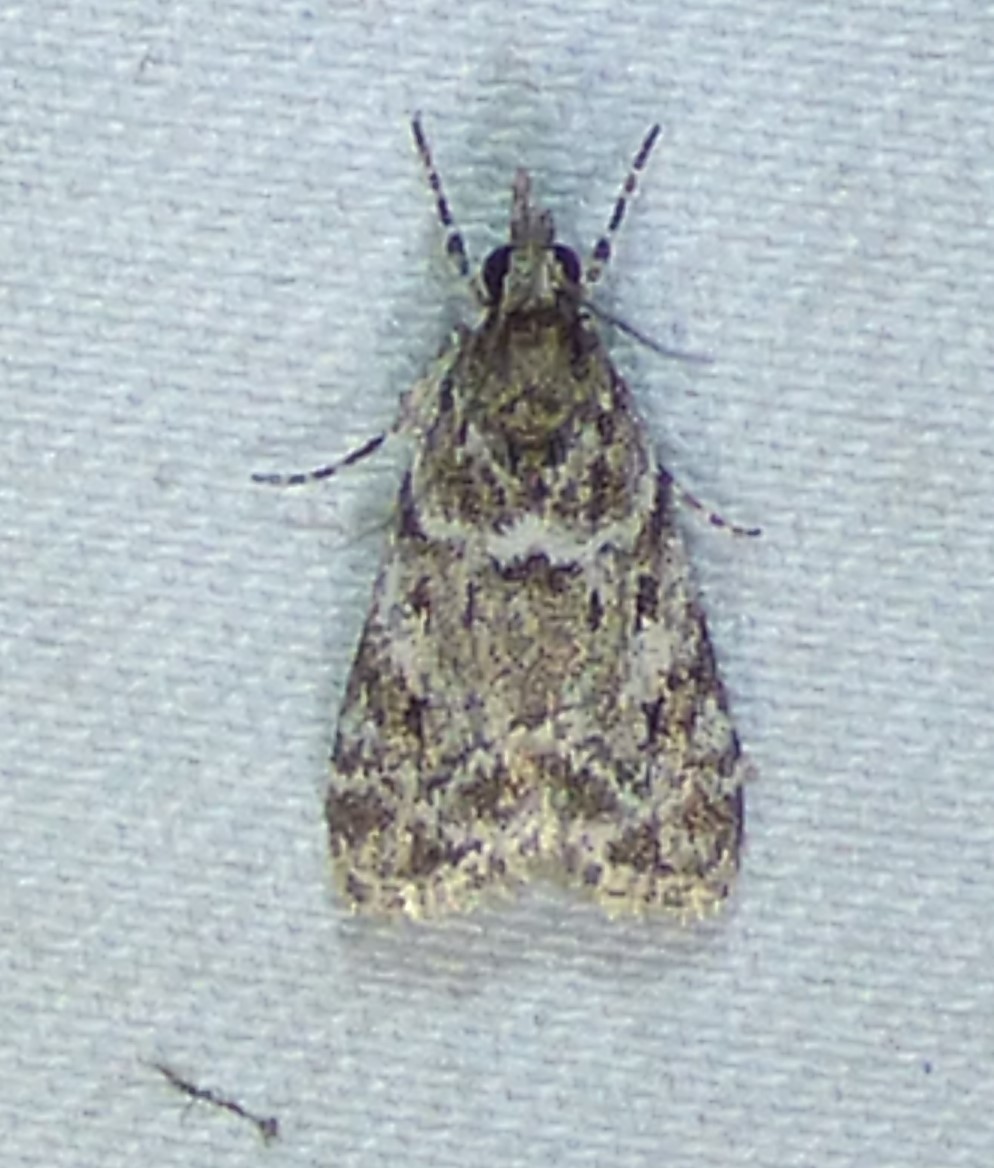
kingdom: Animalia
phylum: Arthropoda
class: Insecta
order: Lepidoptera
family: Crambidae
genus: Eudonia
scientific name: Eudonia heterosalis
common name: Mcdunnough's eudonia
